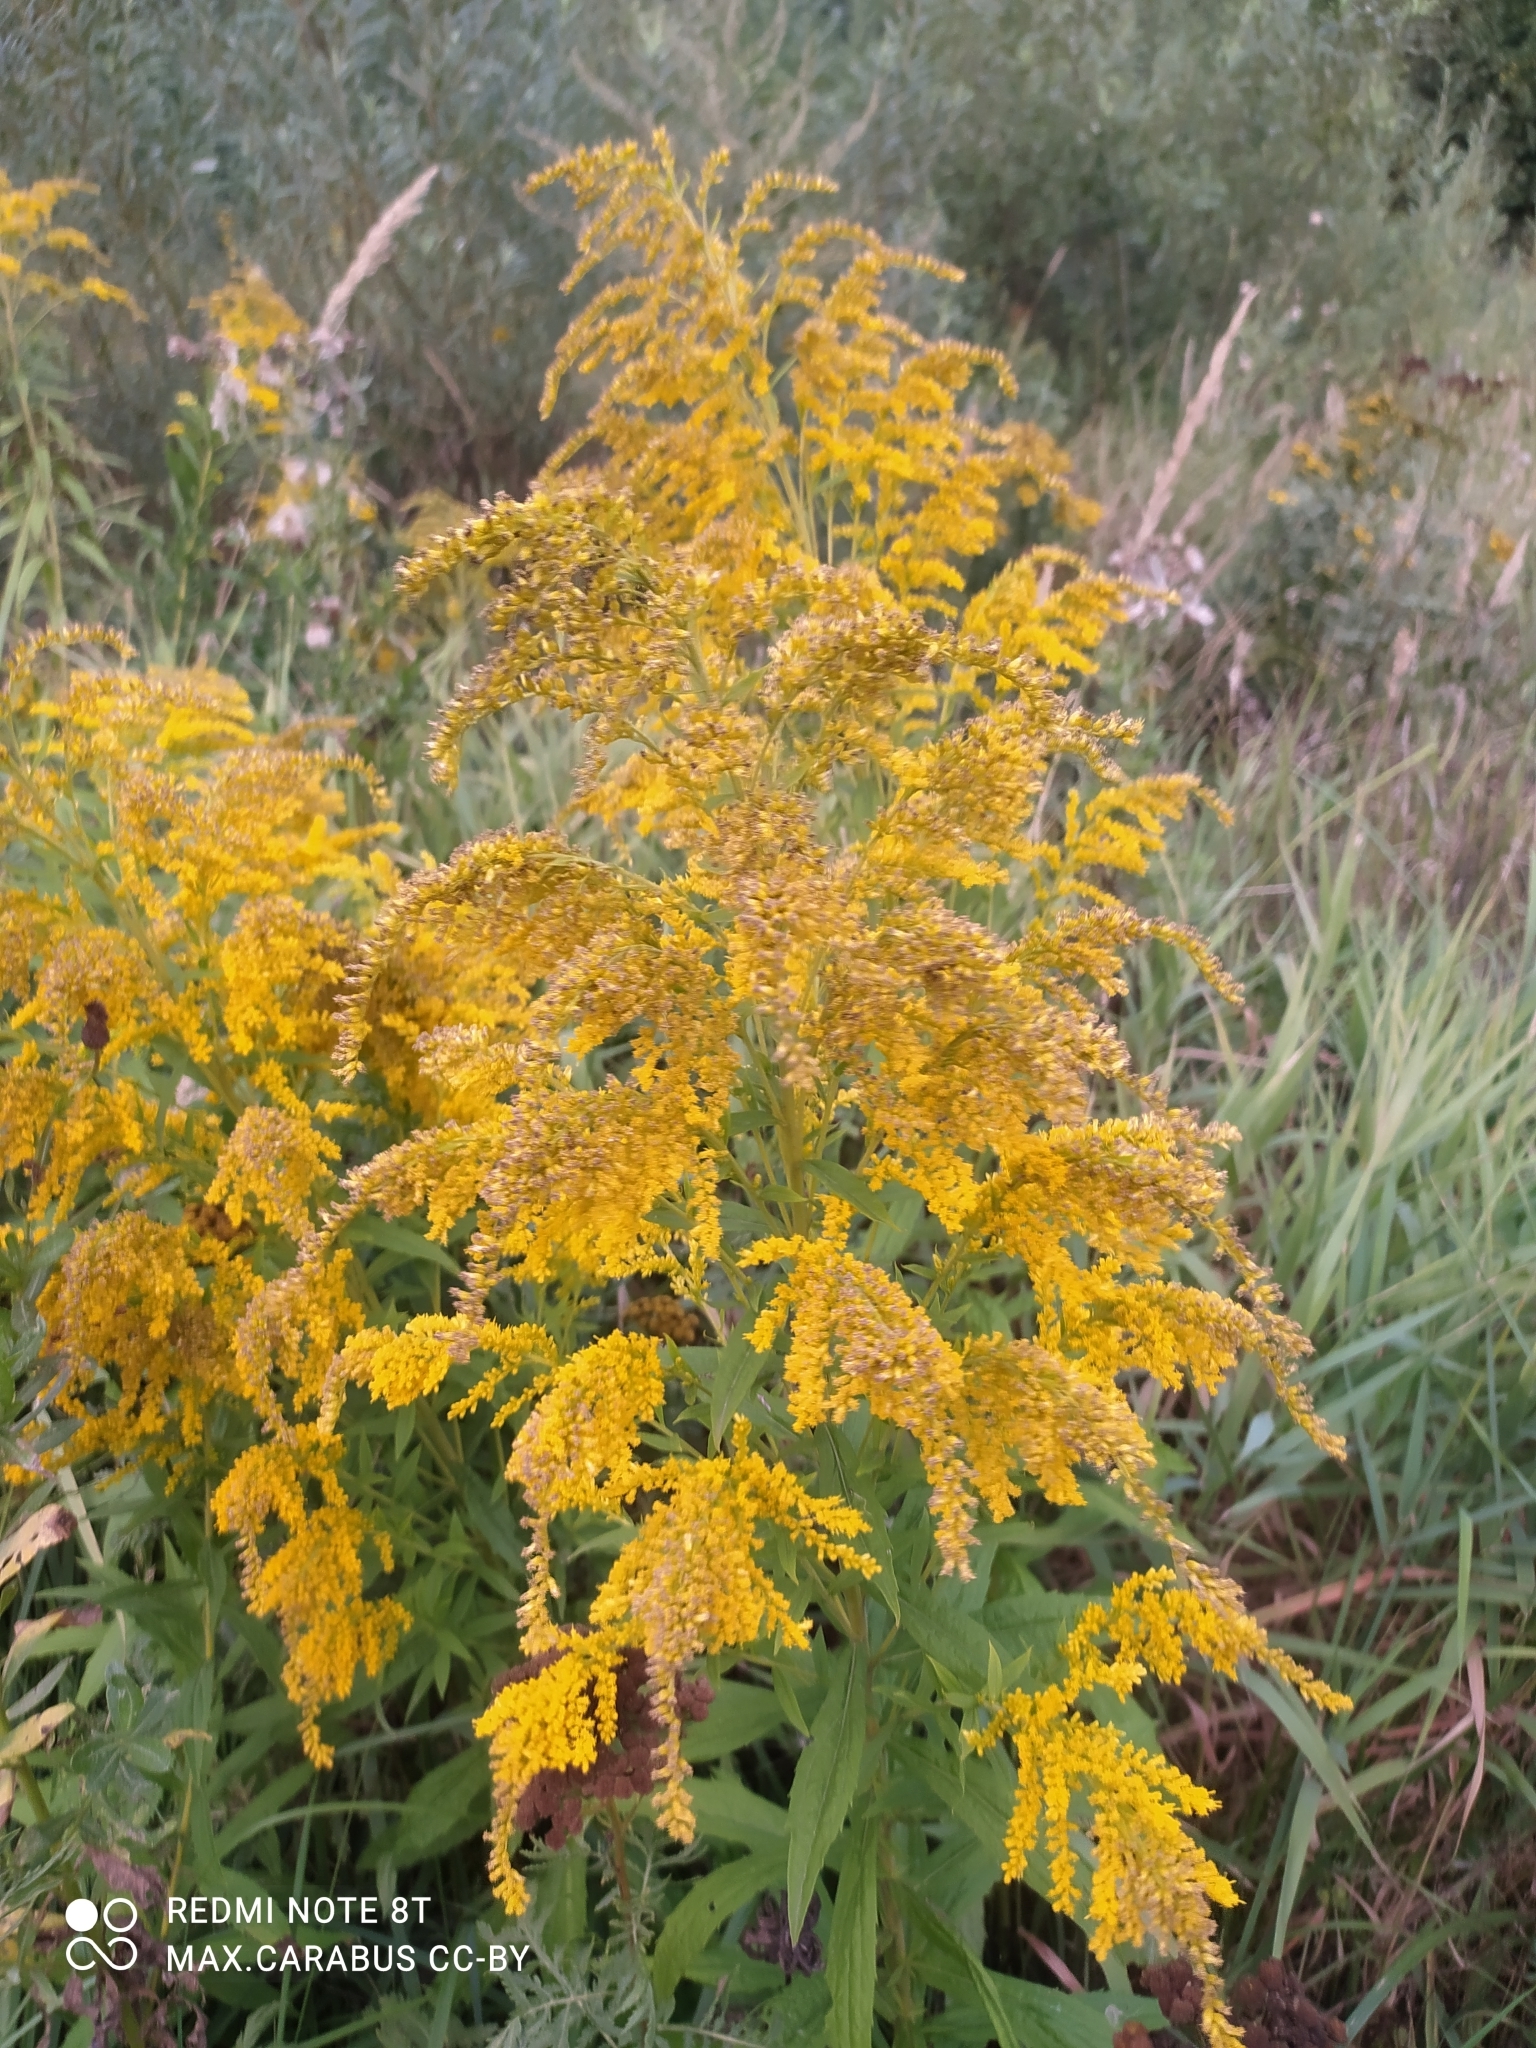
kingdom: Plantae
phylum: Tracheophyta
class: Magnoliopsida
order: Asterales
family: Asteraceae
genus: Solidago
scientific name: Solidago canadensis
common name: Canada goldenrod
